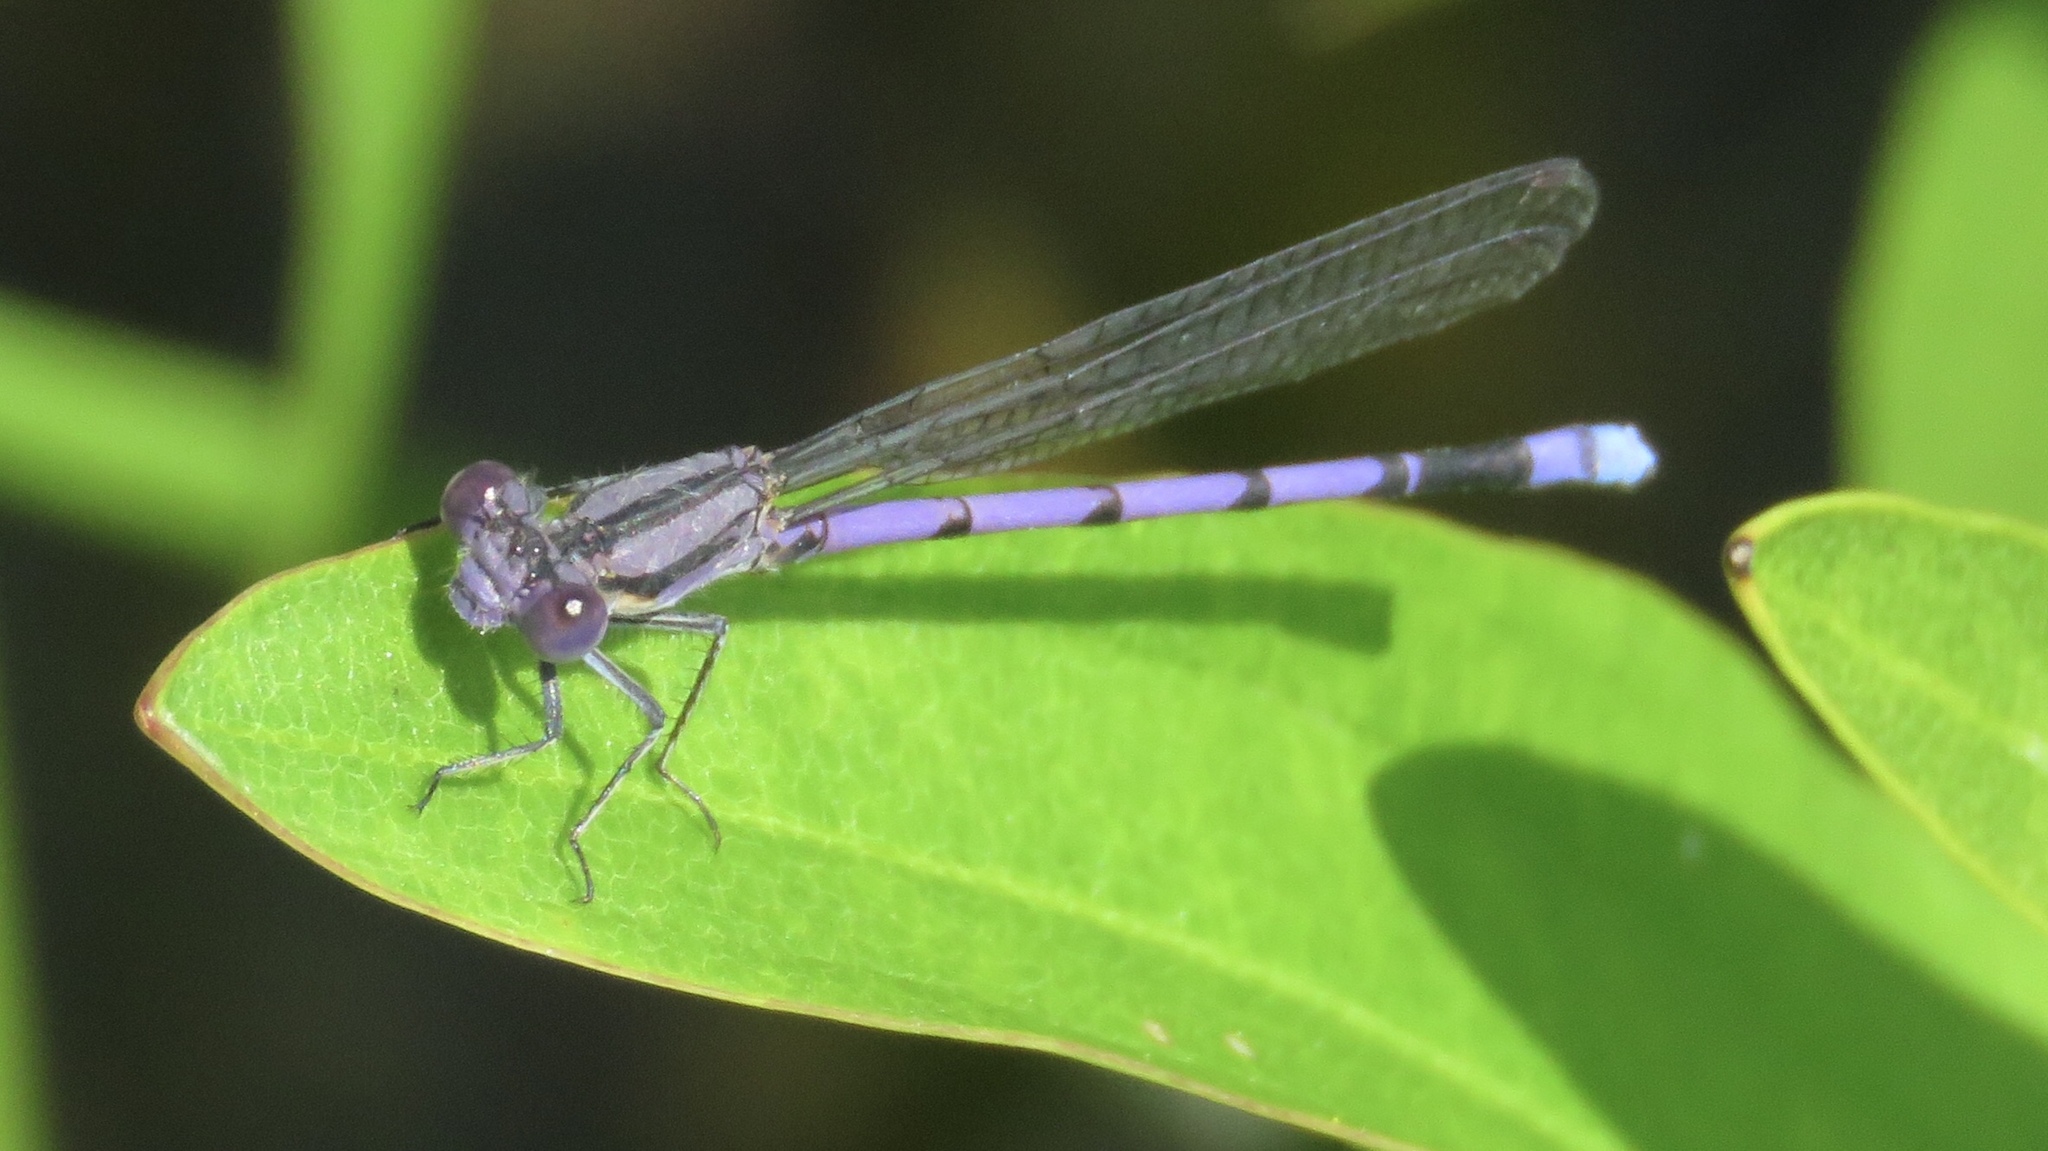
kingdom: Animalia
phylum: Arthropoda
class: Insecta
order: Odonata
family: Coenagrionidae
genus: Argia
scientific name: Argia fumipennis
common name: Variable dancer
